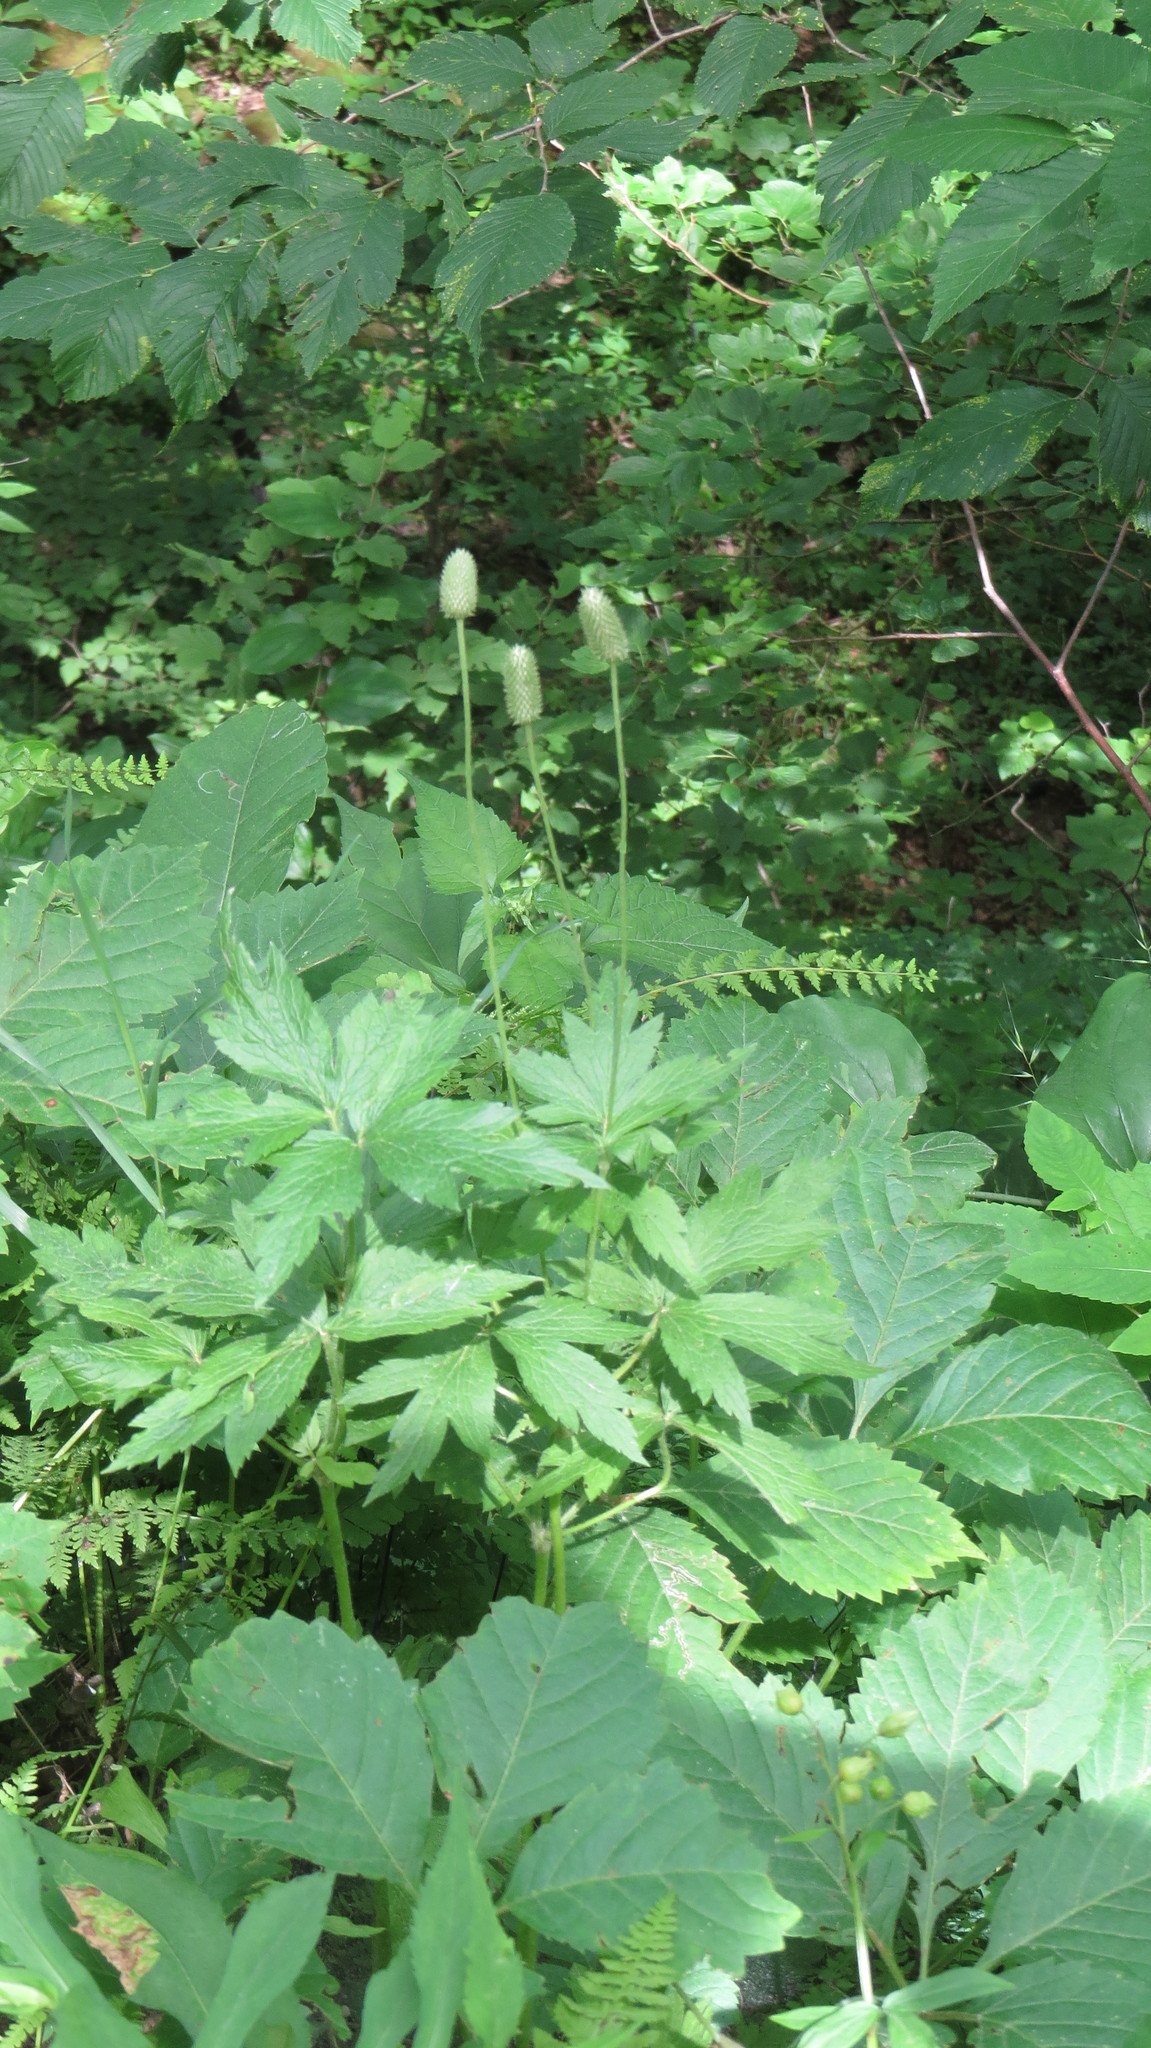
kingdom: Plantae
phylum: Tracheophyta
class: Magnoliopsida
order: Ranunculales
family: Ranunculaceae
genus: Anemone
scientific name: Anemone virginiana
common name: Tall anemone
